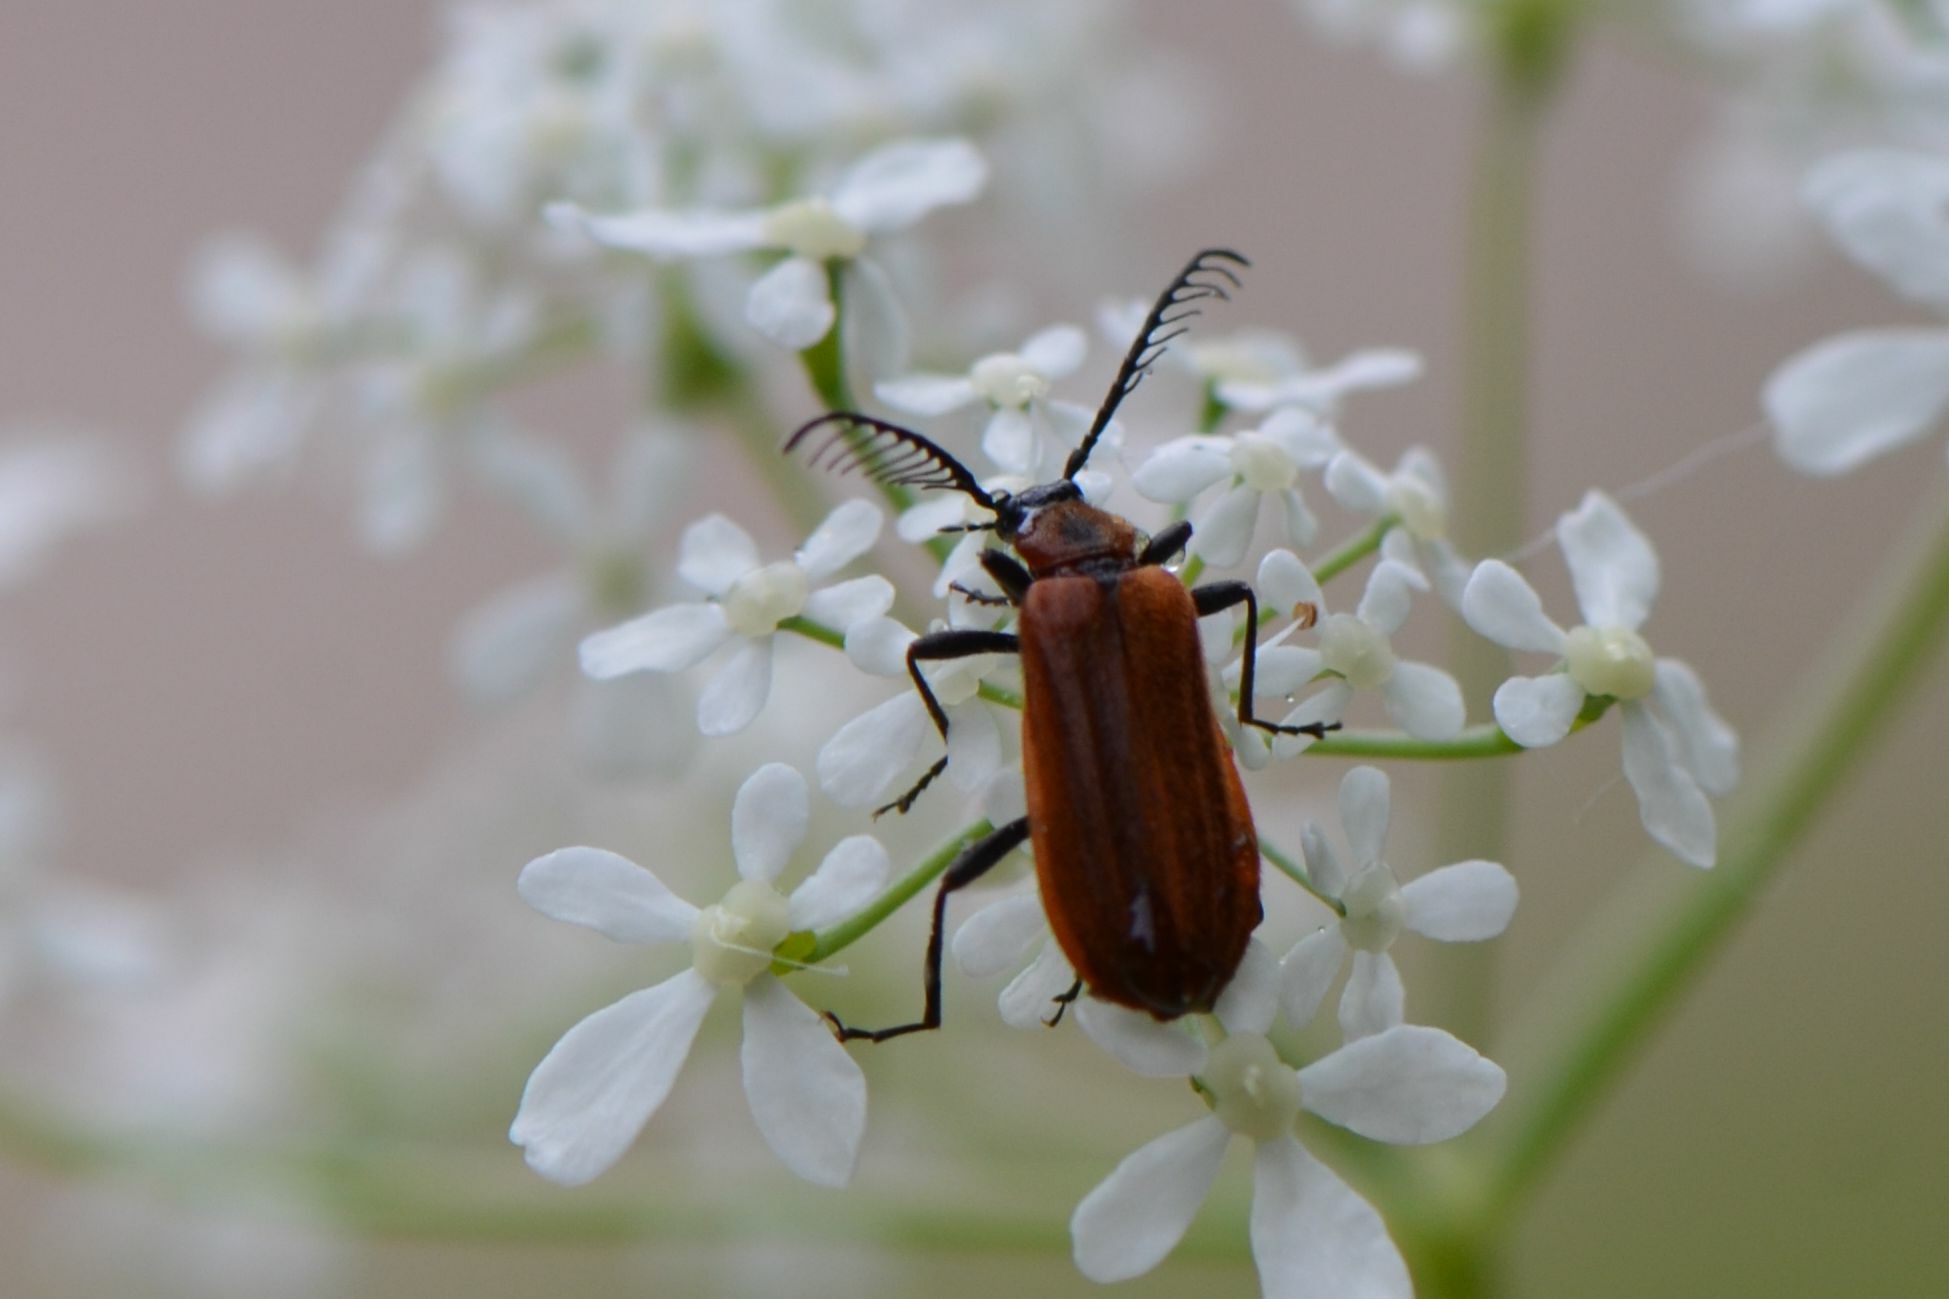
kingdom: Animalia
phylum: Arthropoda
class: Insecta
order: Coleoptera
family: Pyrochroidae
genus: Schizotus
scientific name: Schizotus pectinicornis
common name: Scarce cardinal beetle
